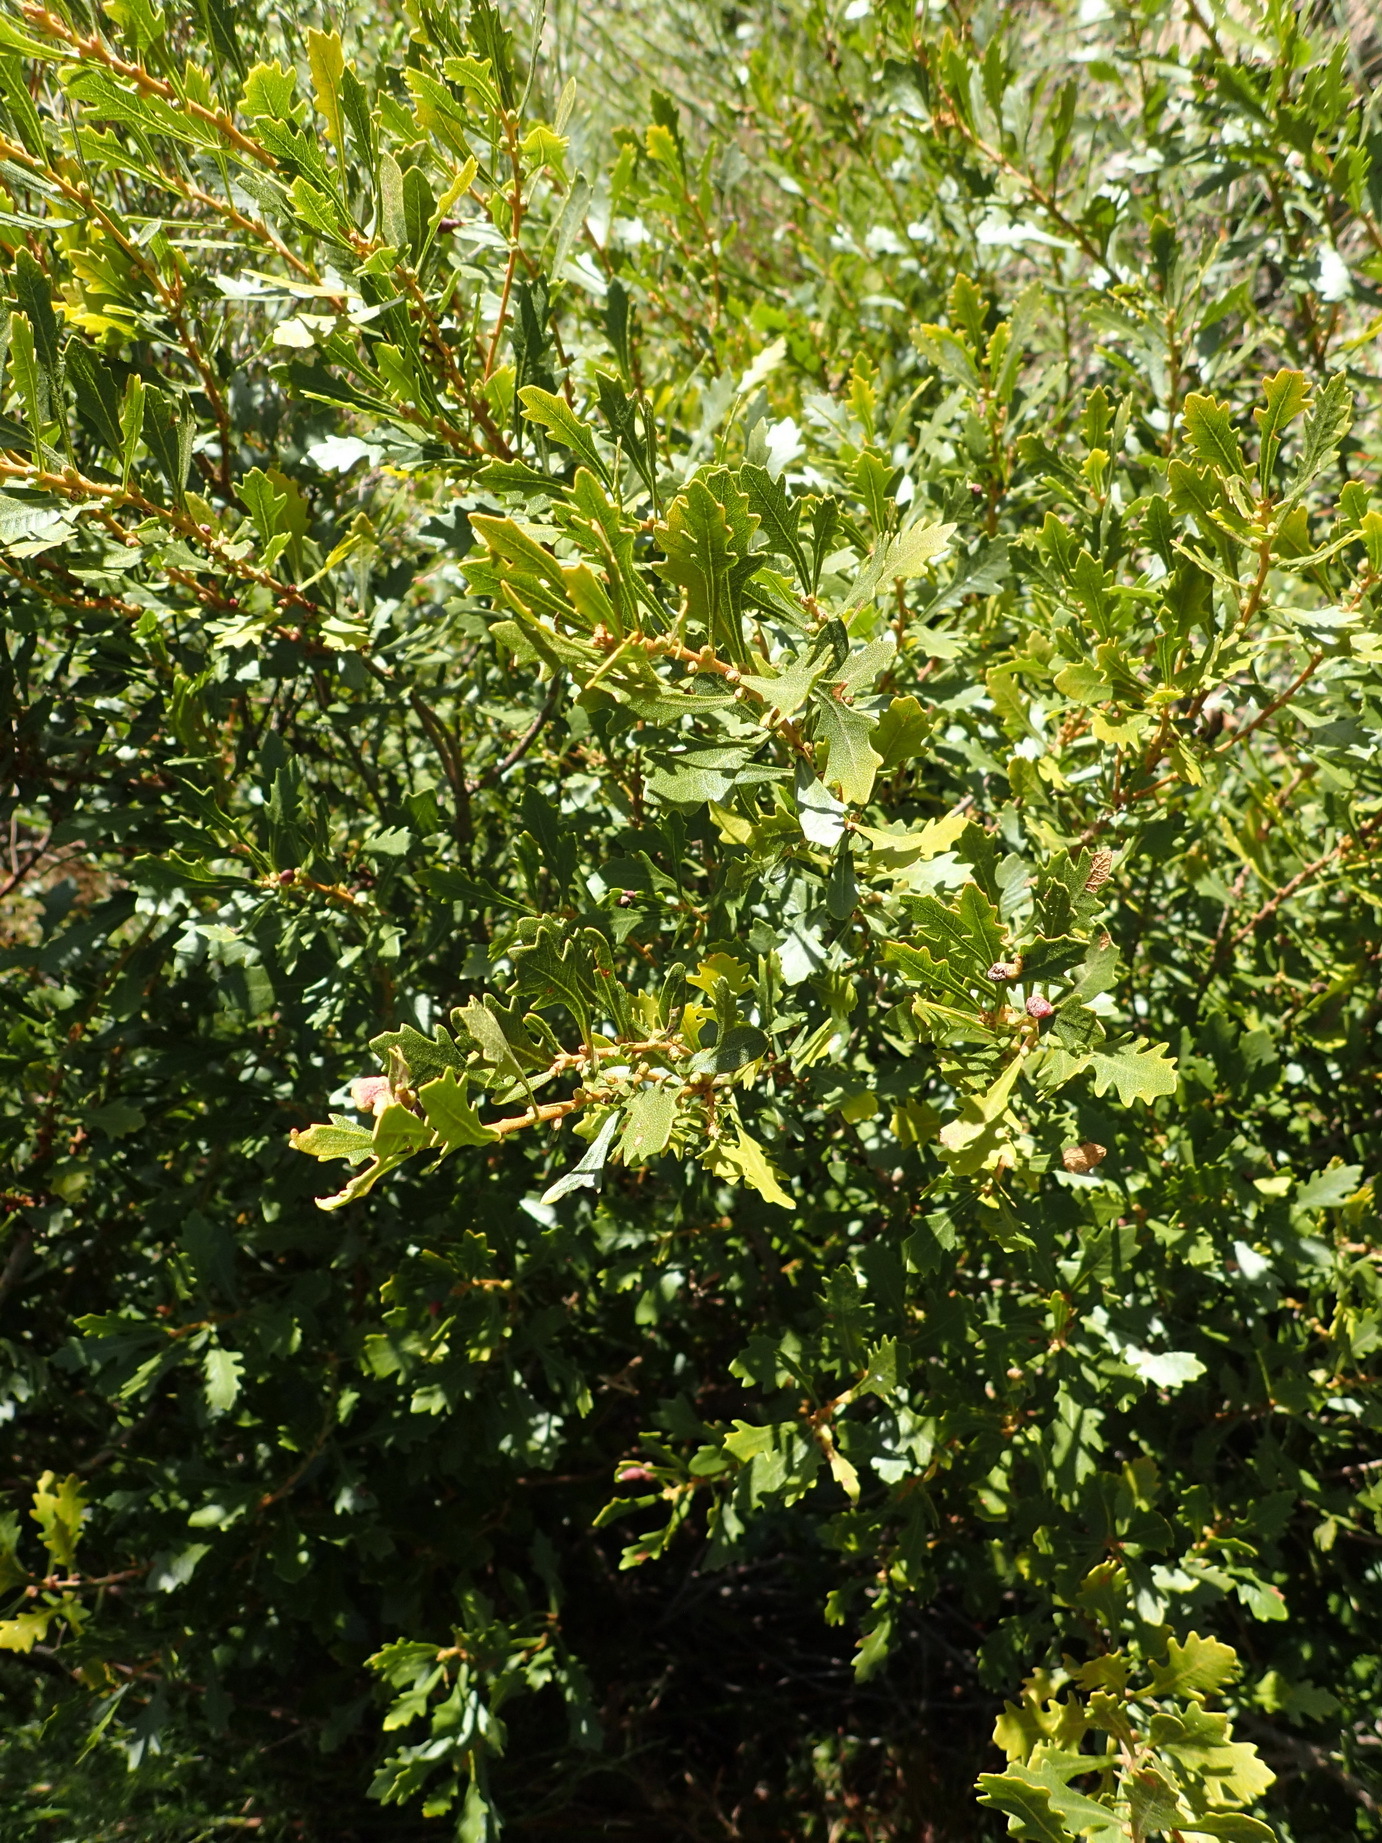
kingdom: Plantae
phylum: Tracheophyta
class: Magnoliopsida
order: Fagales
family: Myricaceae
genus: Morella
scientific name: Morella quercifolia
